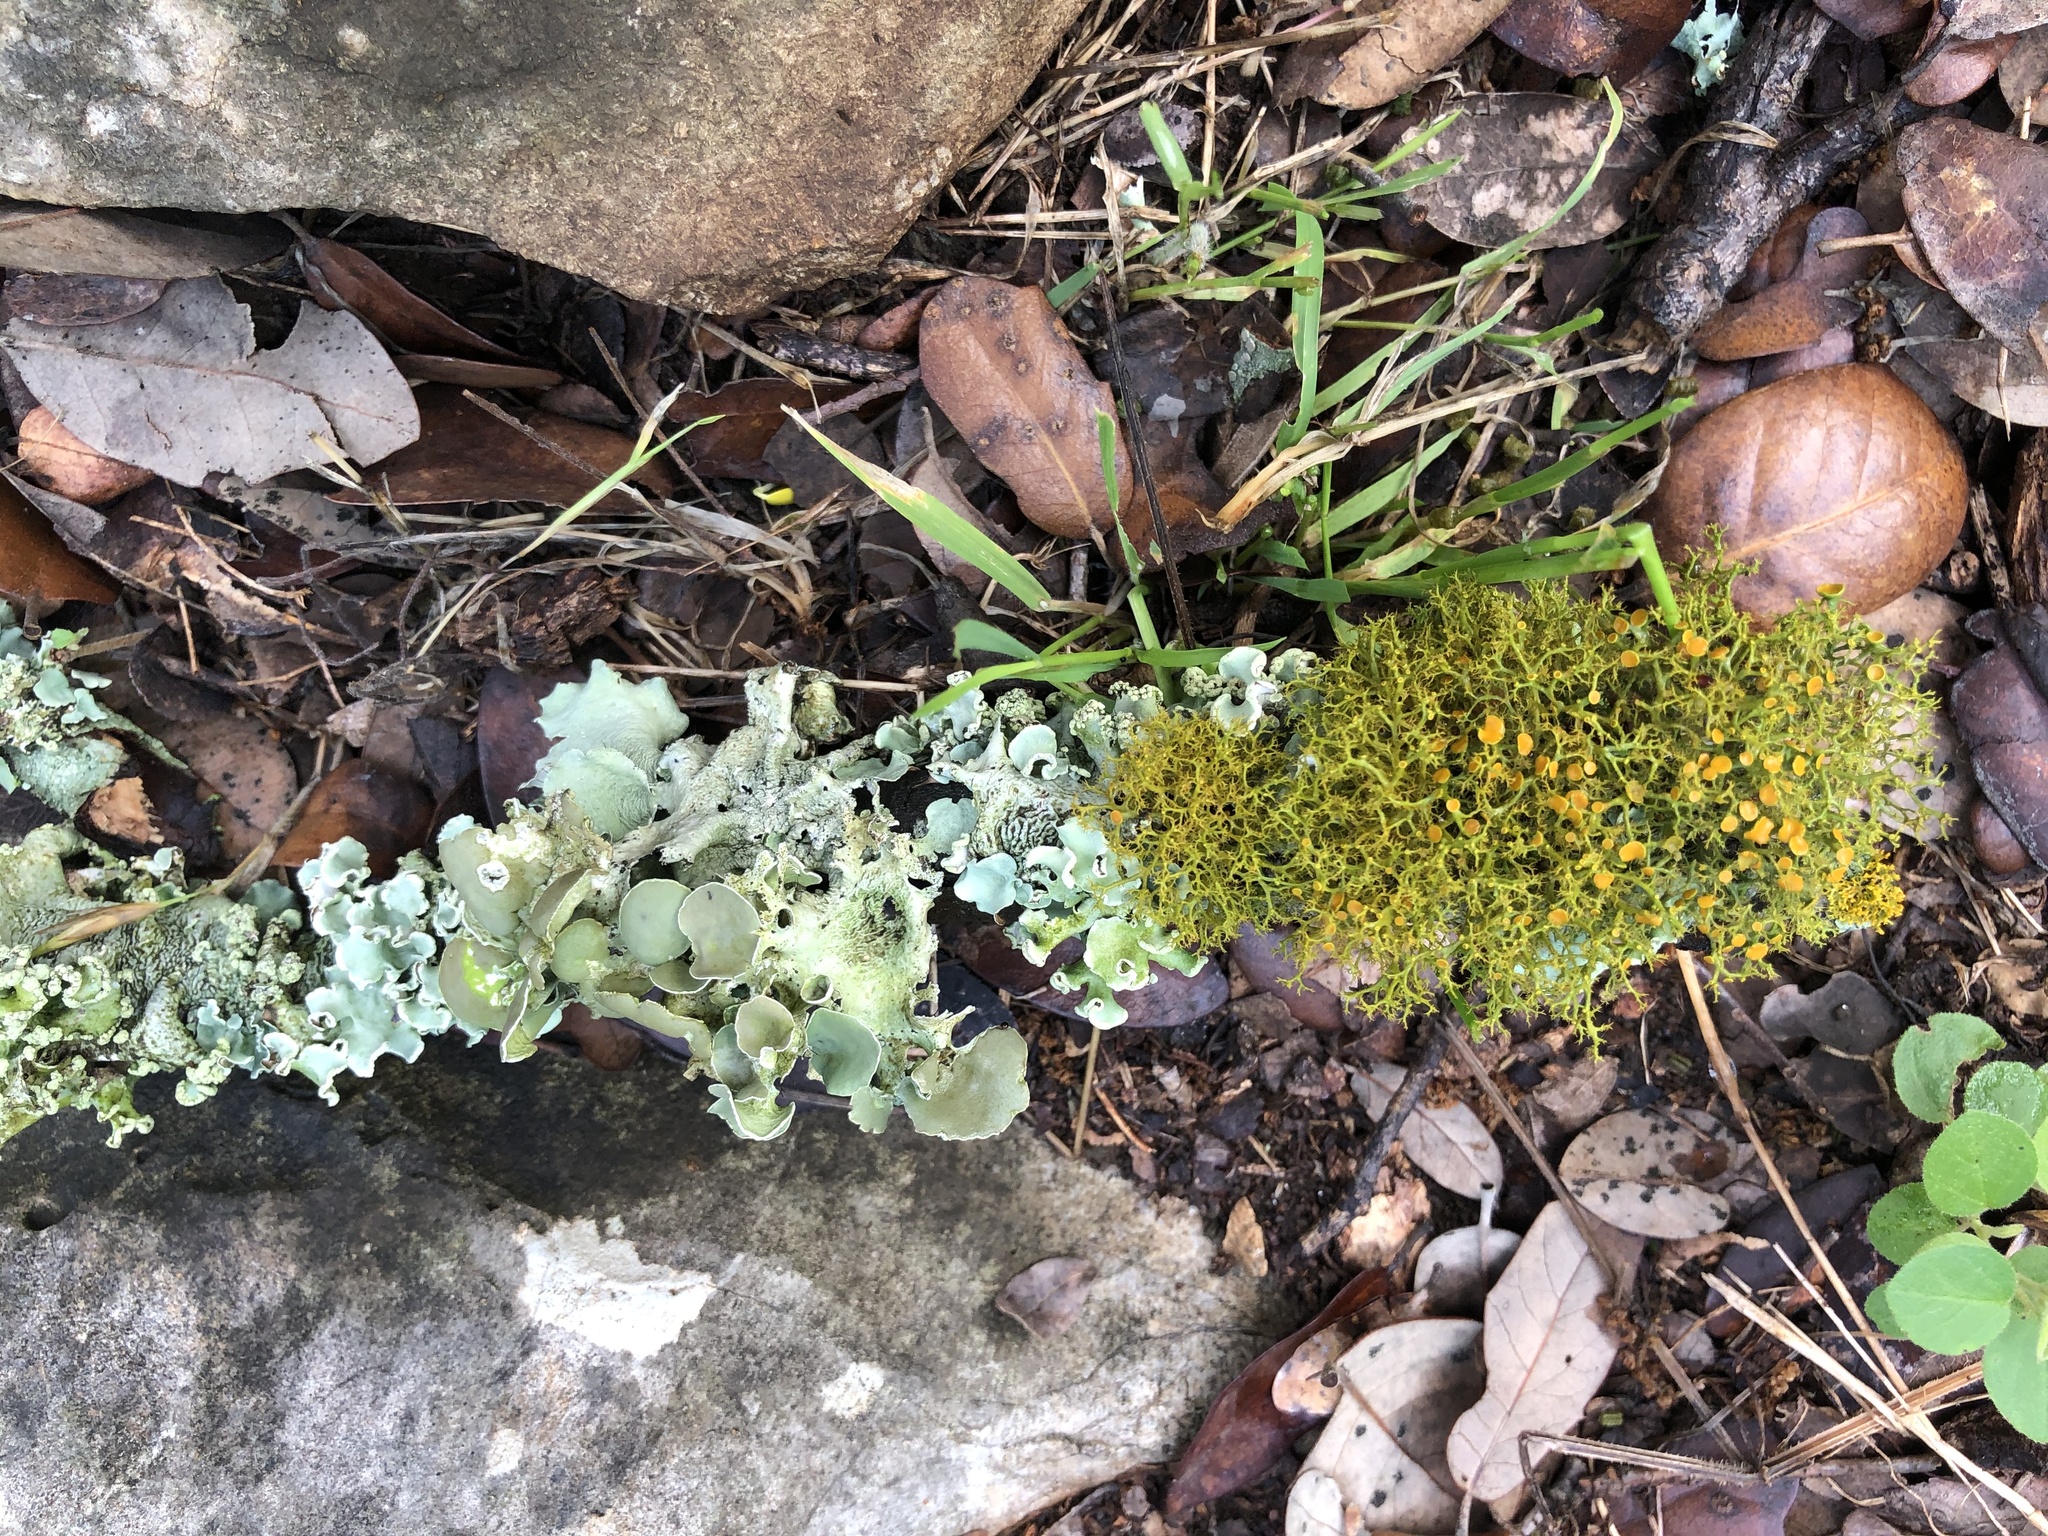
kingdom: Fungi
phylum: Ascomycota
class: Lecanoromycetes
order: Teloschistales
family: Teloschistaceae
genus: Teloschistes
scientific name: Teloschistes exilis
